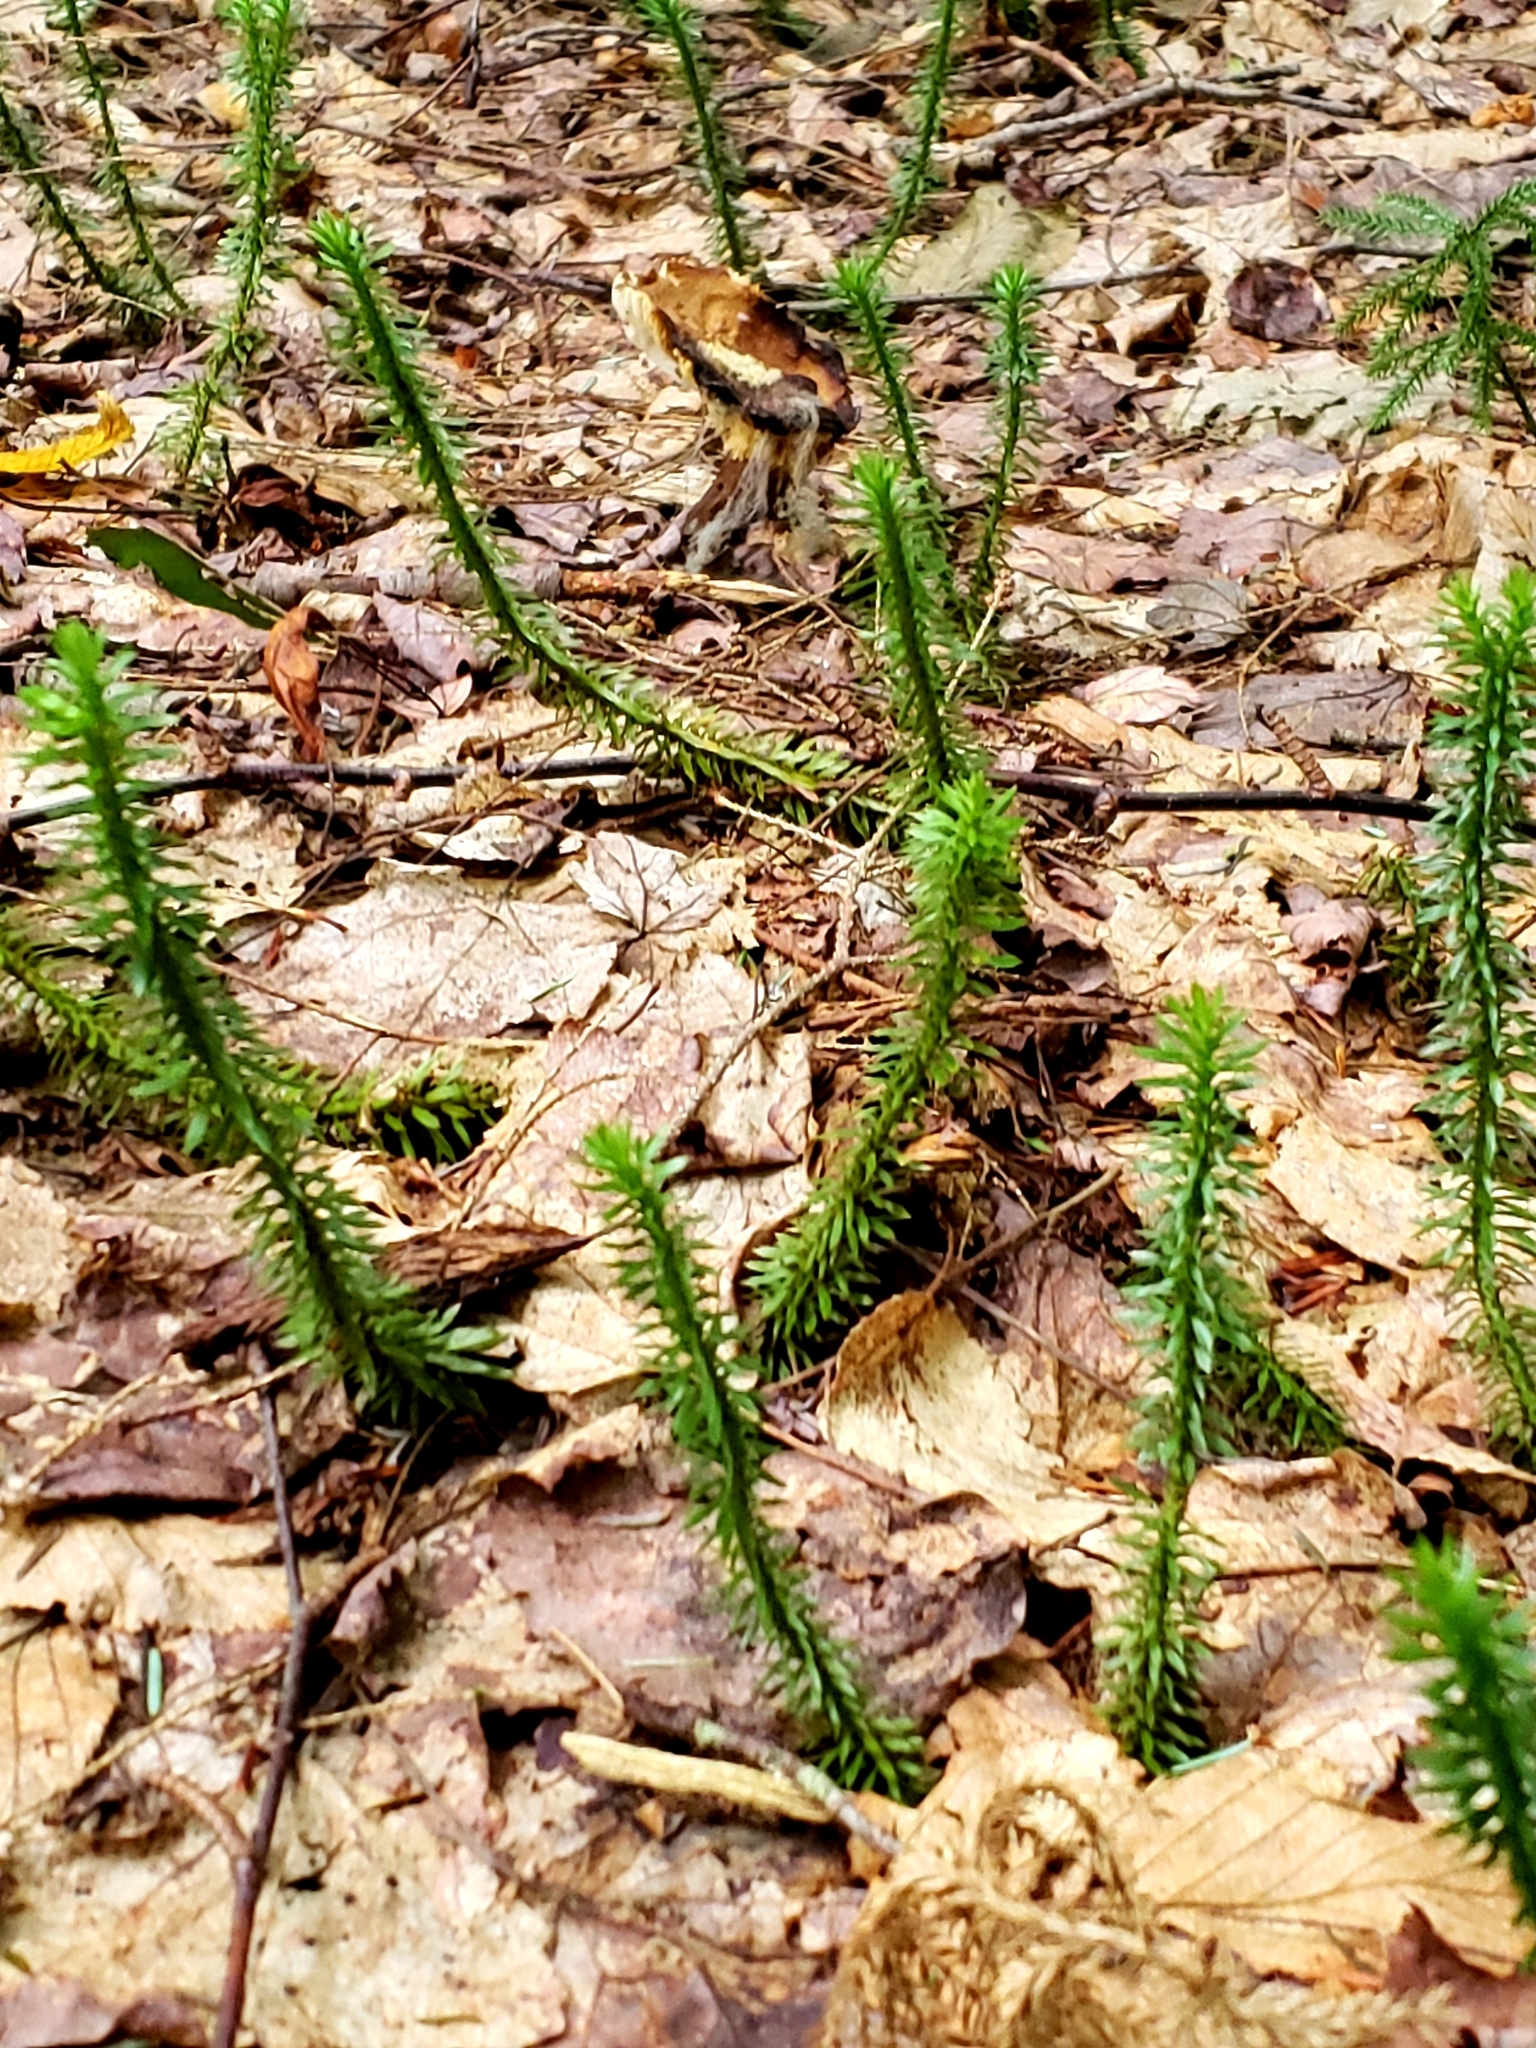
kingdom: Plantae
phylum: Tracheophyta
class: Lycopodiopsida
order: Lycopodiales
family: Lycopodiaceae
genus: Spinulum
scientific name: Spinulum annotinum
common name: Interrupted club-moss
